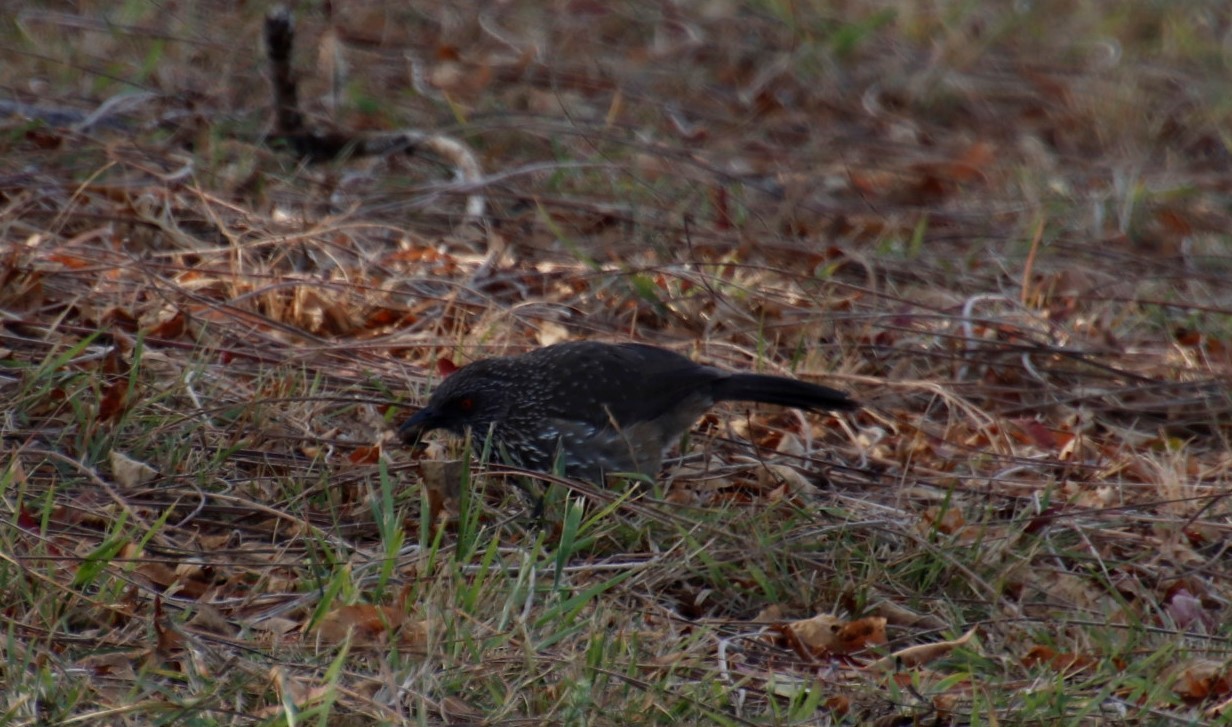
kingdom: Animalia
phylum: Chordata
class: Aves
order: Passeriformes
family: Leiothrichidae
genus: Turdoides
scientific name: Turdoides jardineii
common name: Arrow-marked babbler
